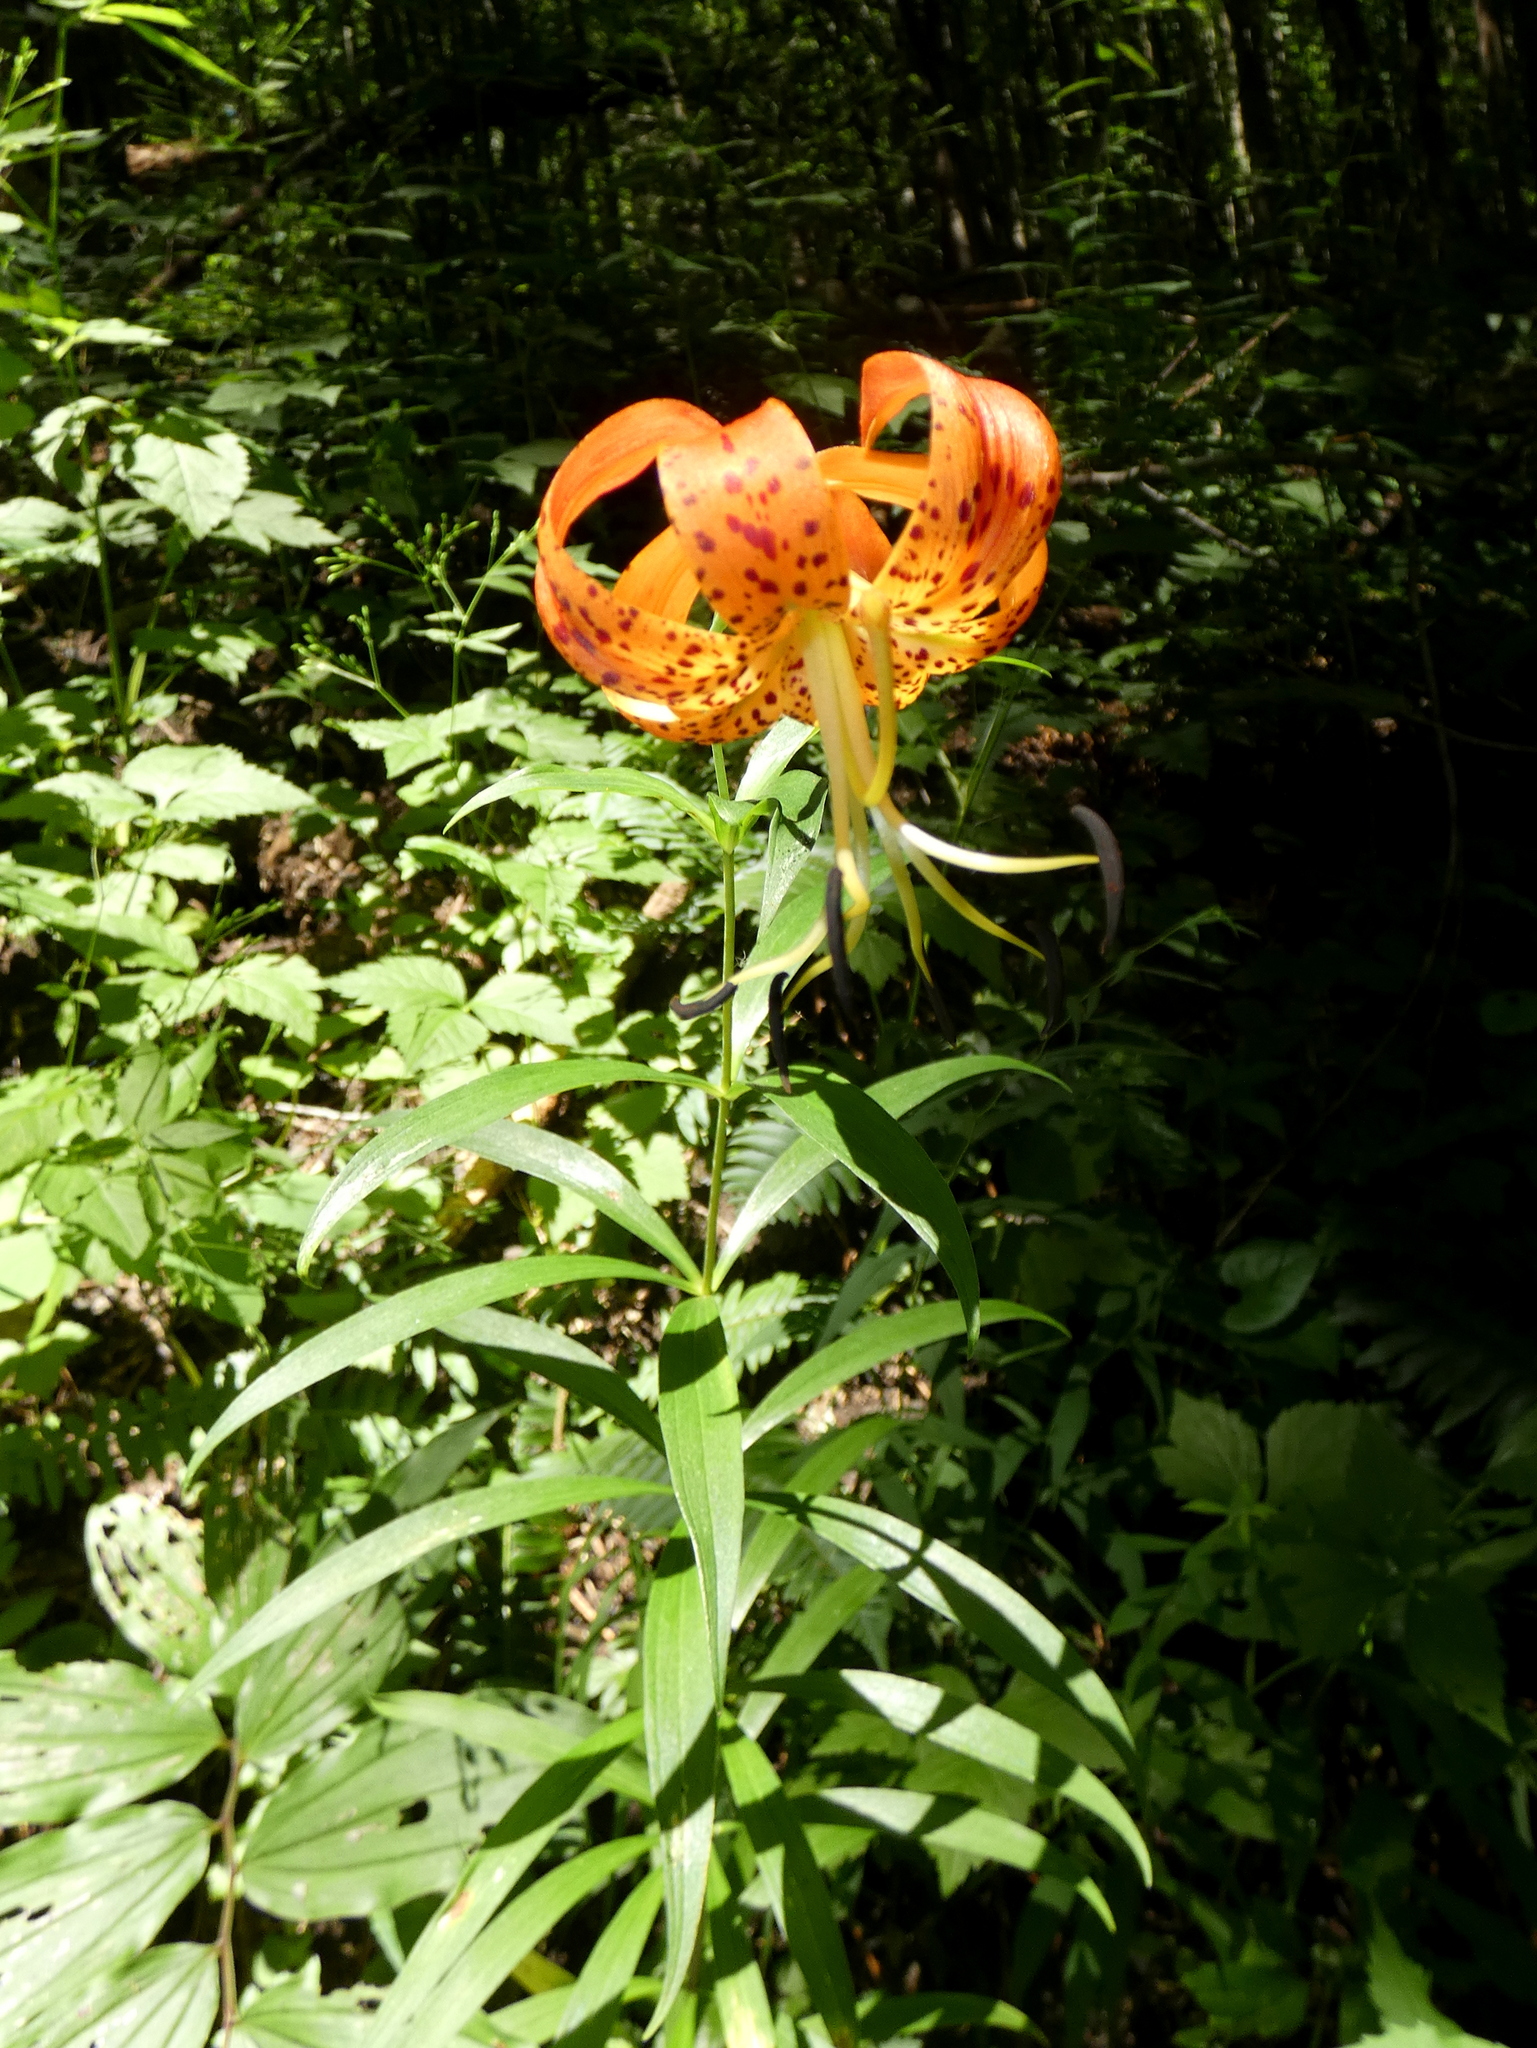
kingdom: Plantae
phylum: Tracheophyta
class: Liliopsida
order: Liliales
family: Liliaceae
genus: Lilium
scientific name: Lilium superbum
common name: American turk's-cap lily
